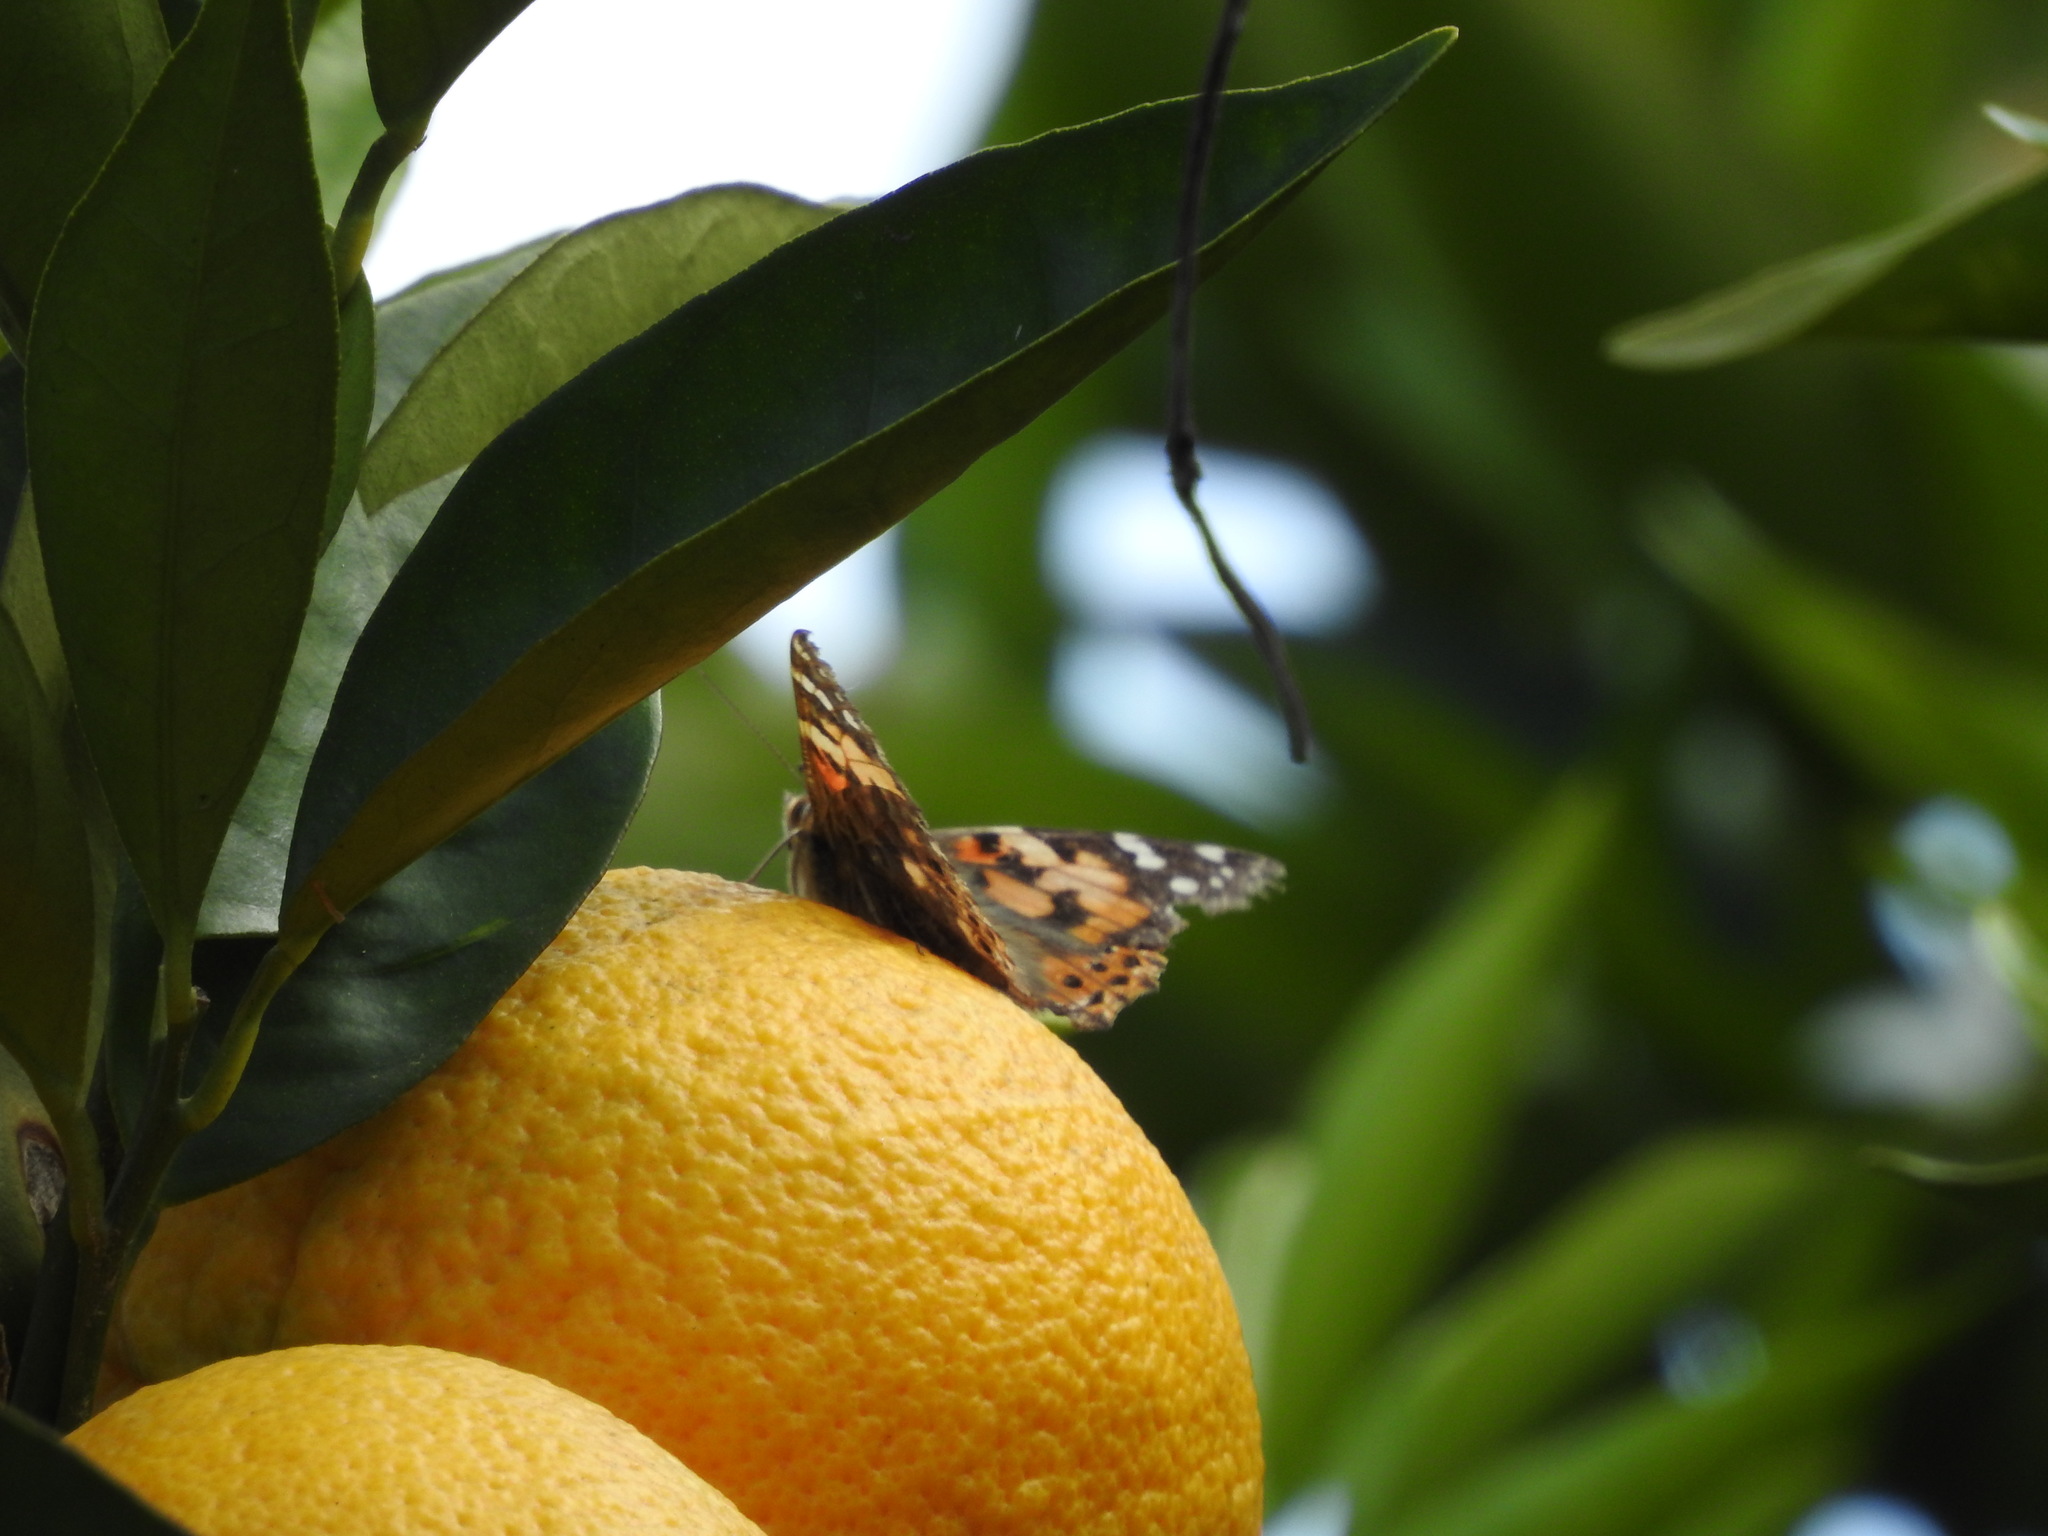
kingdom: Animalia
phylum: Arthropoda
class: Insecta
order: Lepidoptera
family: Nymphalidae
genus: Vanessa
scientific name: Vanessa cardui
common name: Painted lady
